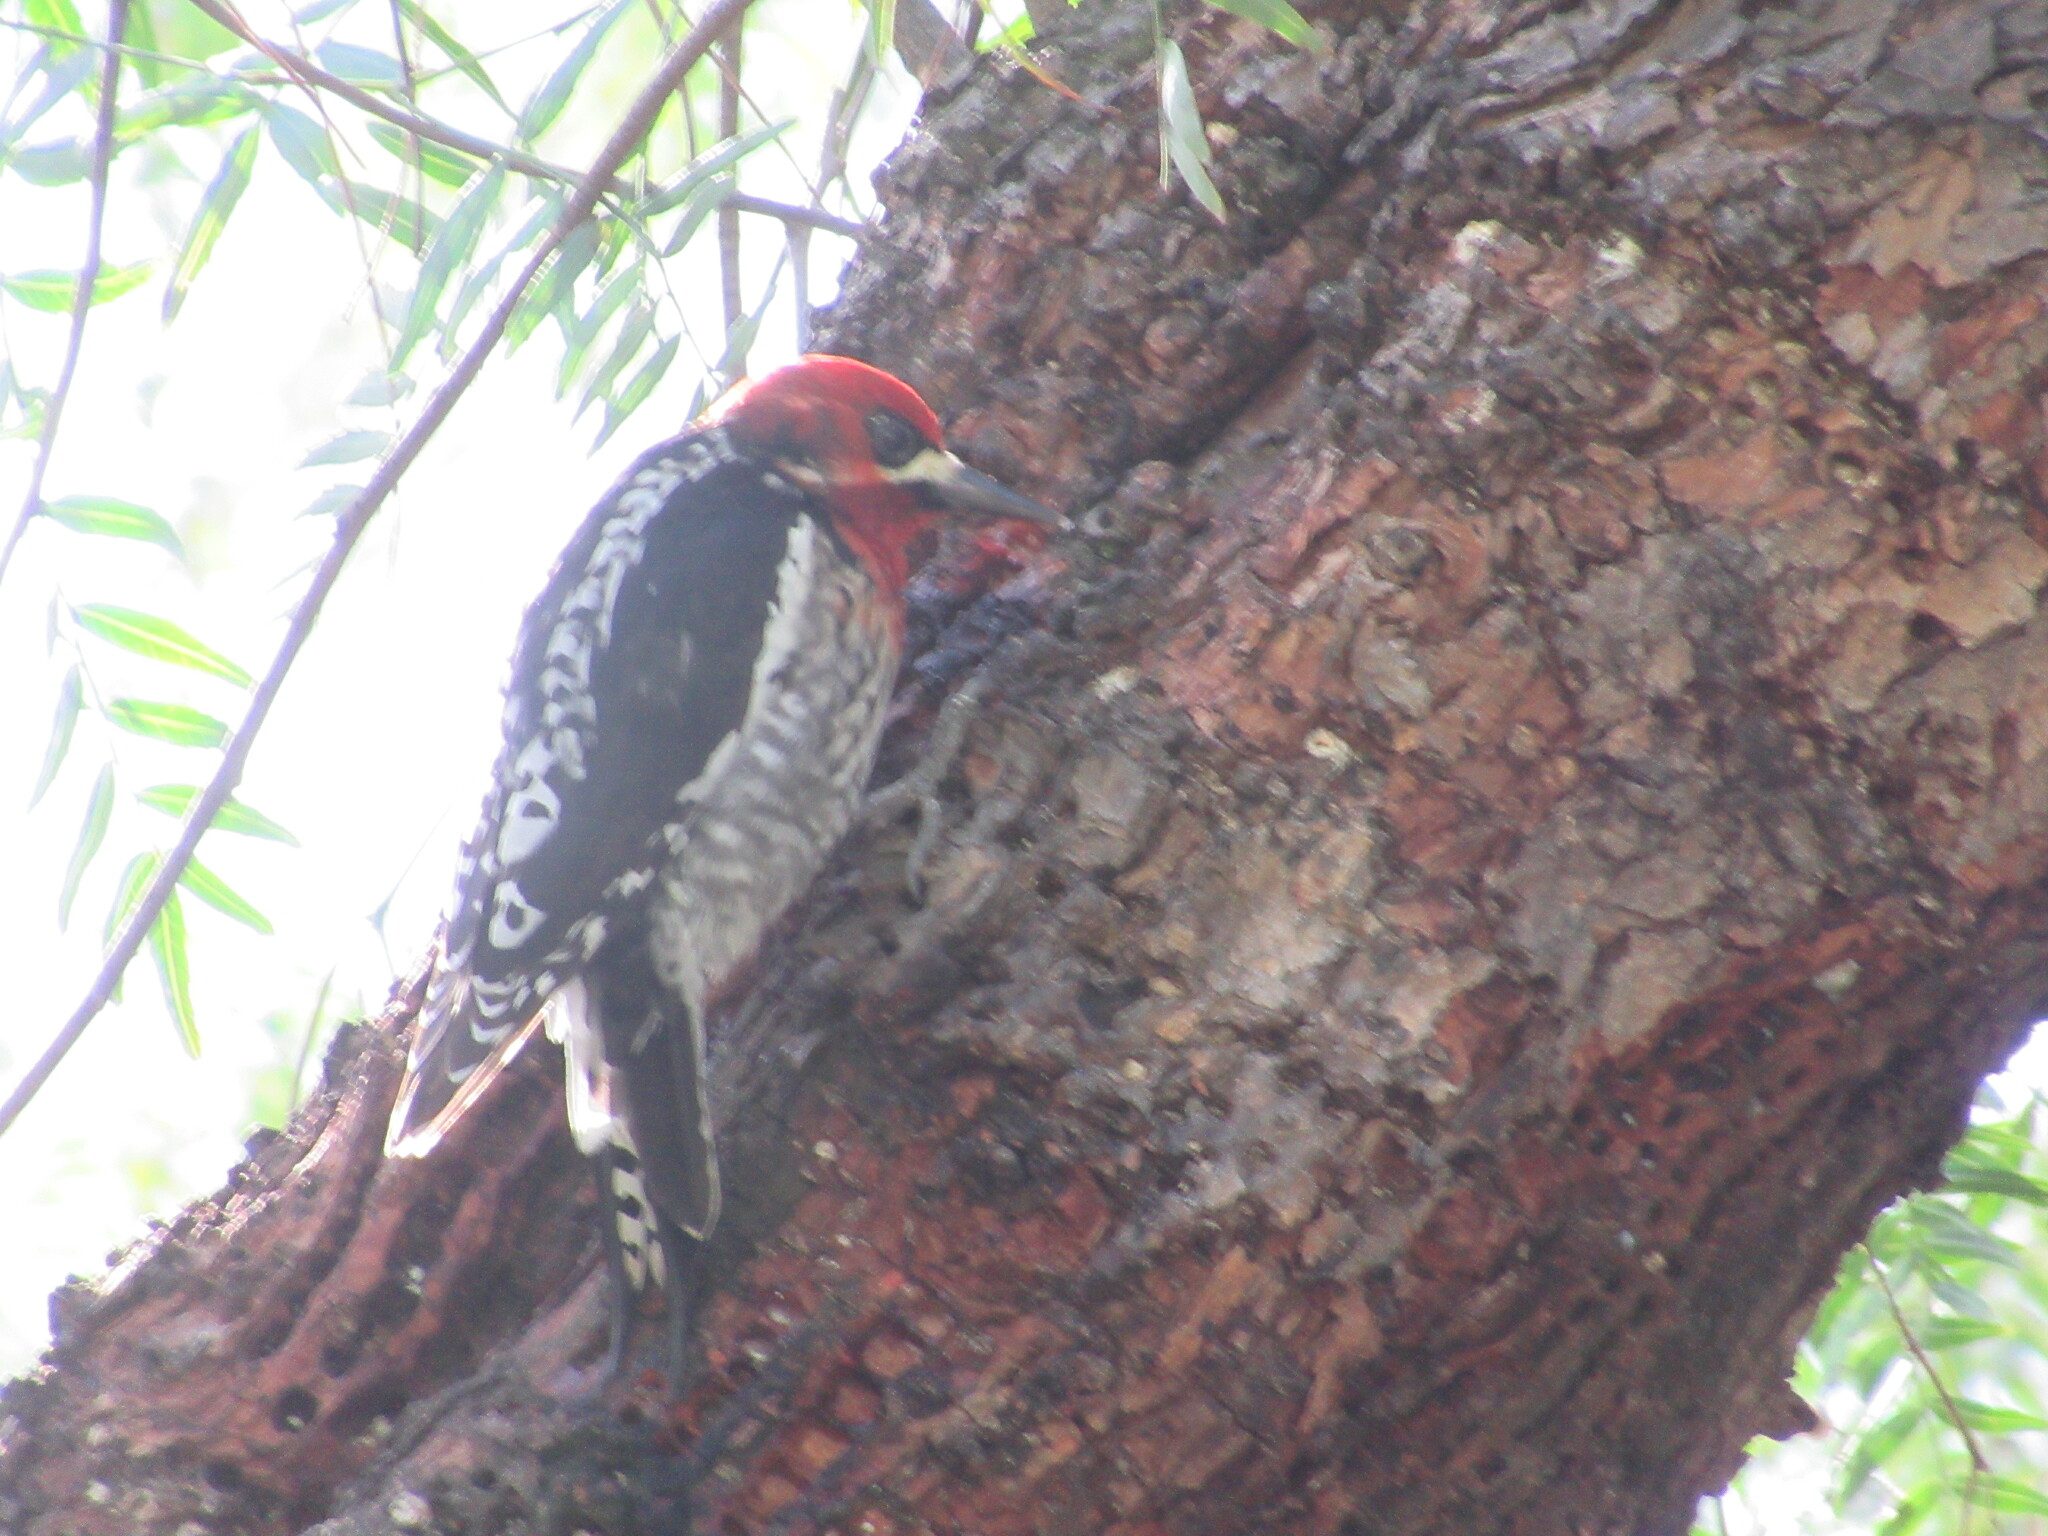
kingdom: Animalia
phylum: Chordata
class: Aves
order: Piciformes
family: Picidae
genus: Sphyrapicus
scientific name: Sphyrapicus ruber
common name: Red-breasted sapsucker
